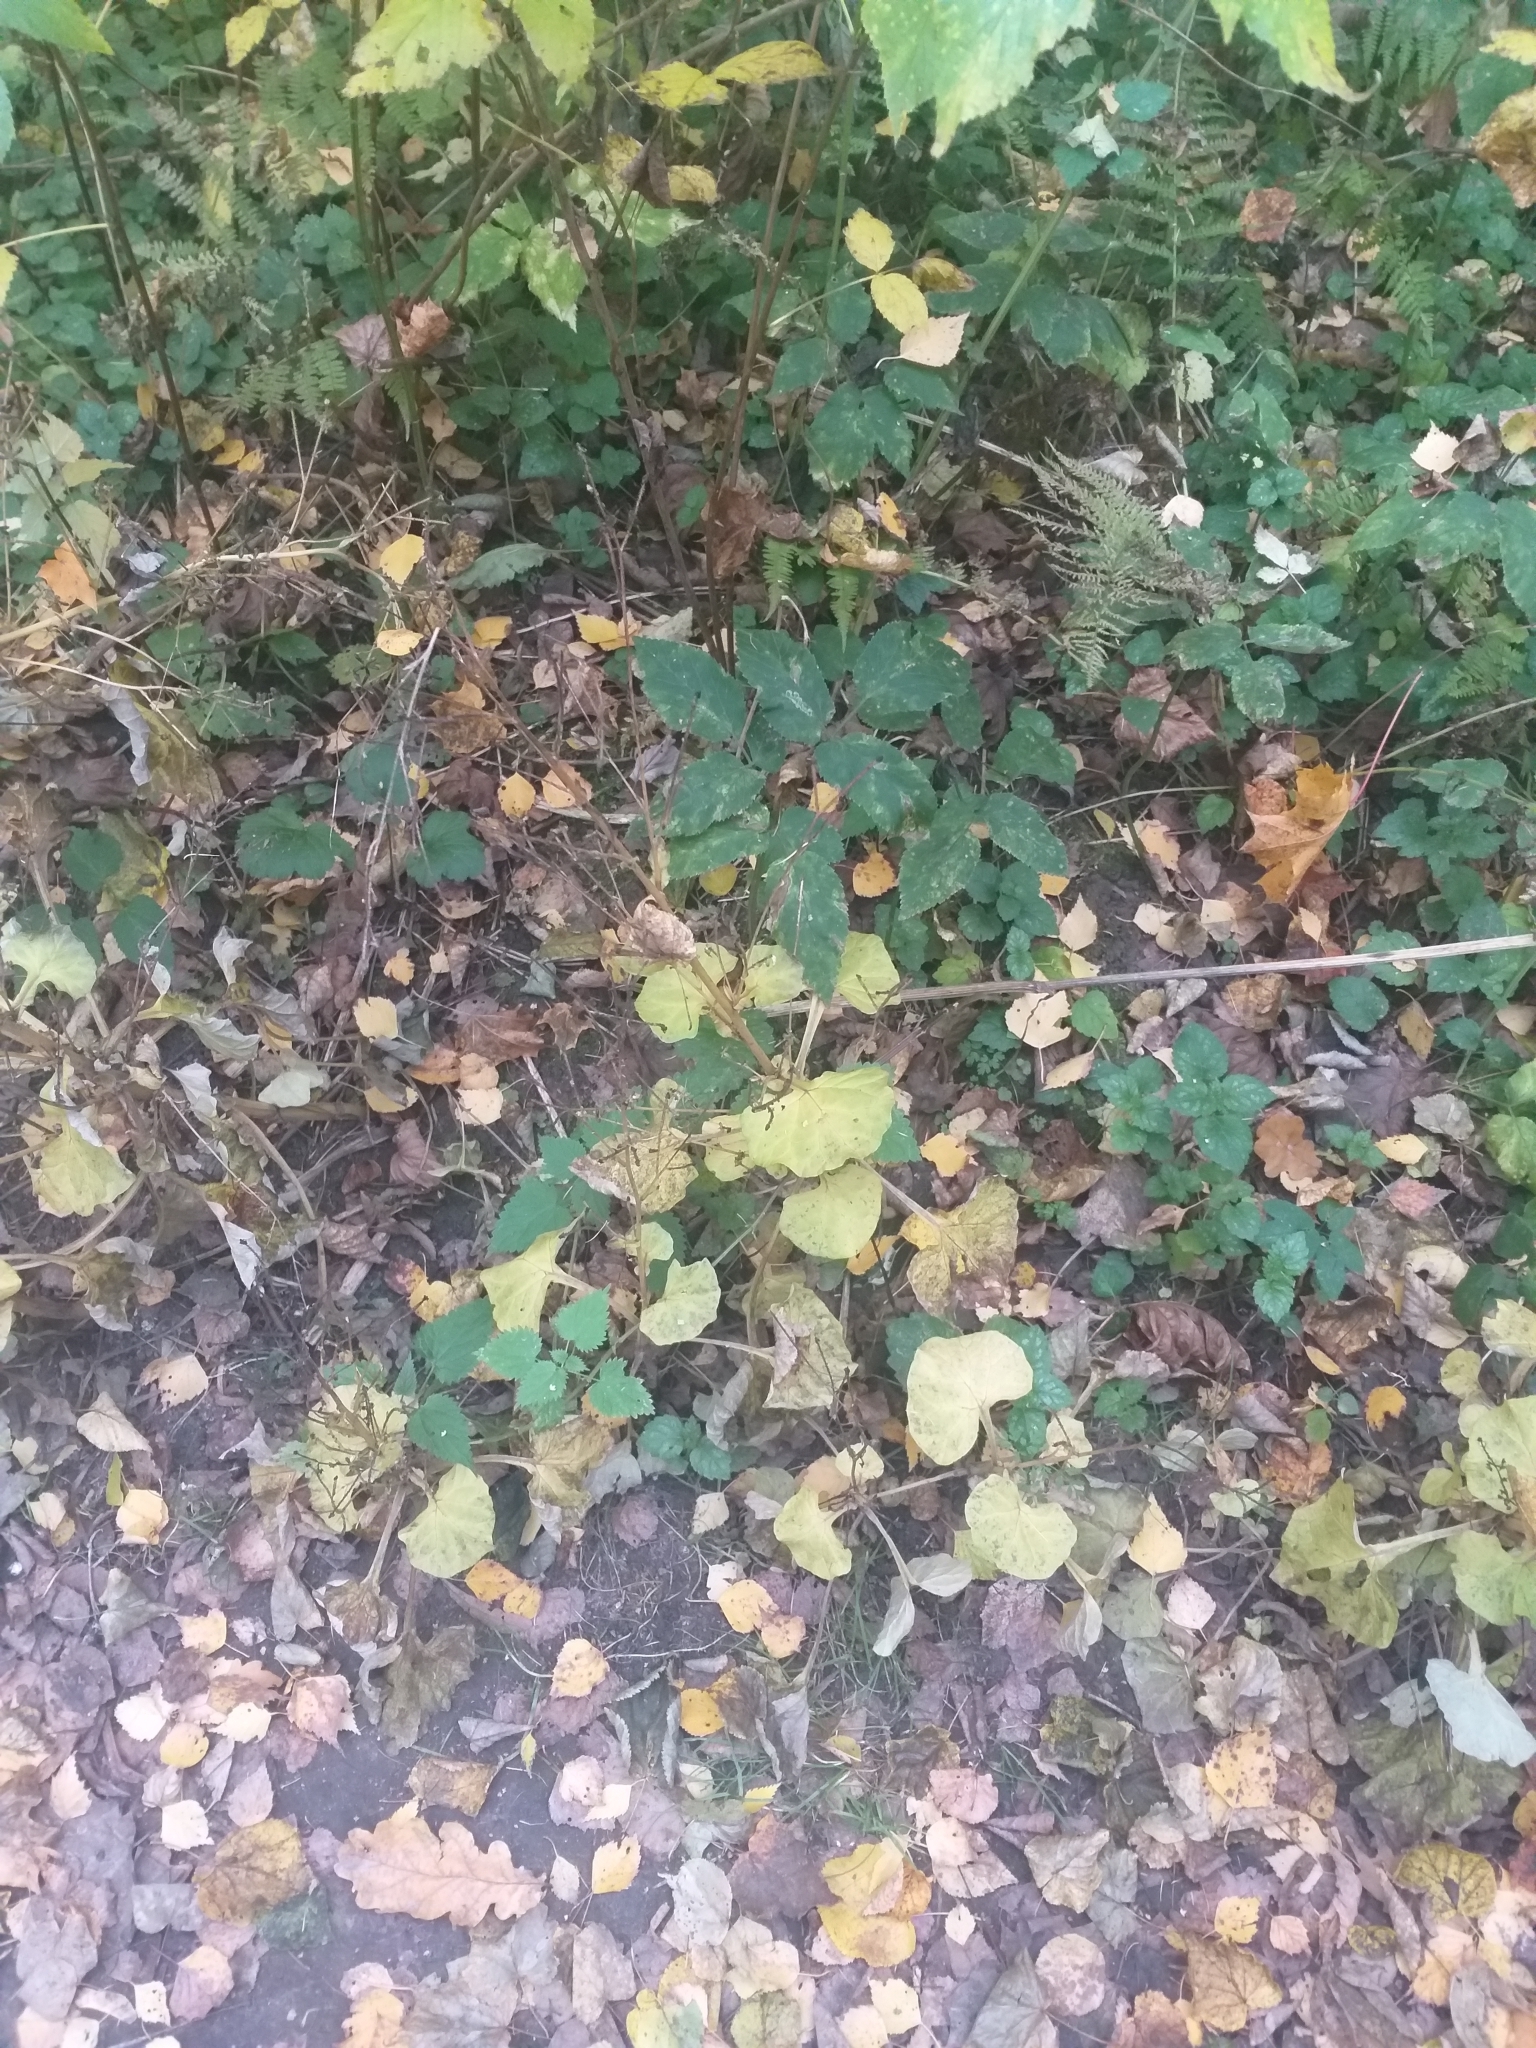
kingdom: Plantae
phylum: Tracheophyta
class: Magnoliopsida
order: Asterales
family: Asteraceae
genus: Adenocaulon
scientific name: Adenocaulon himalaicum
